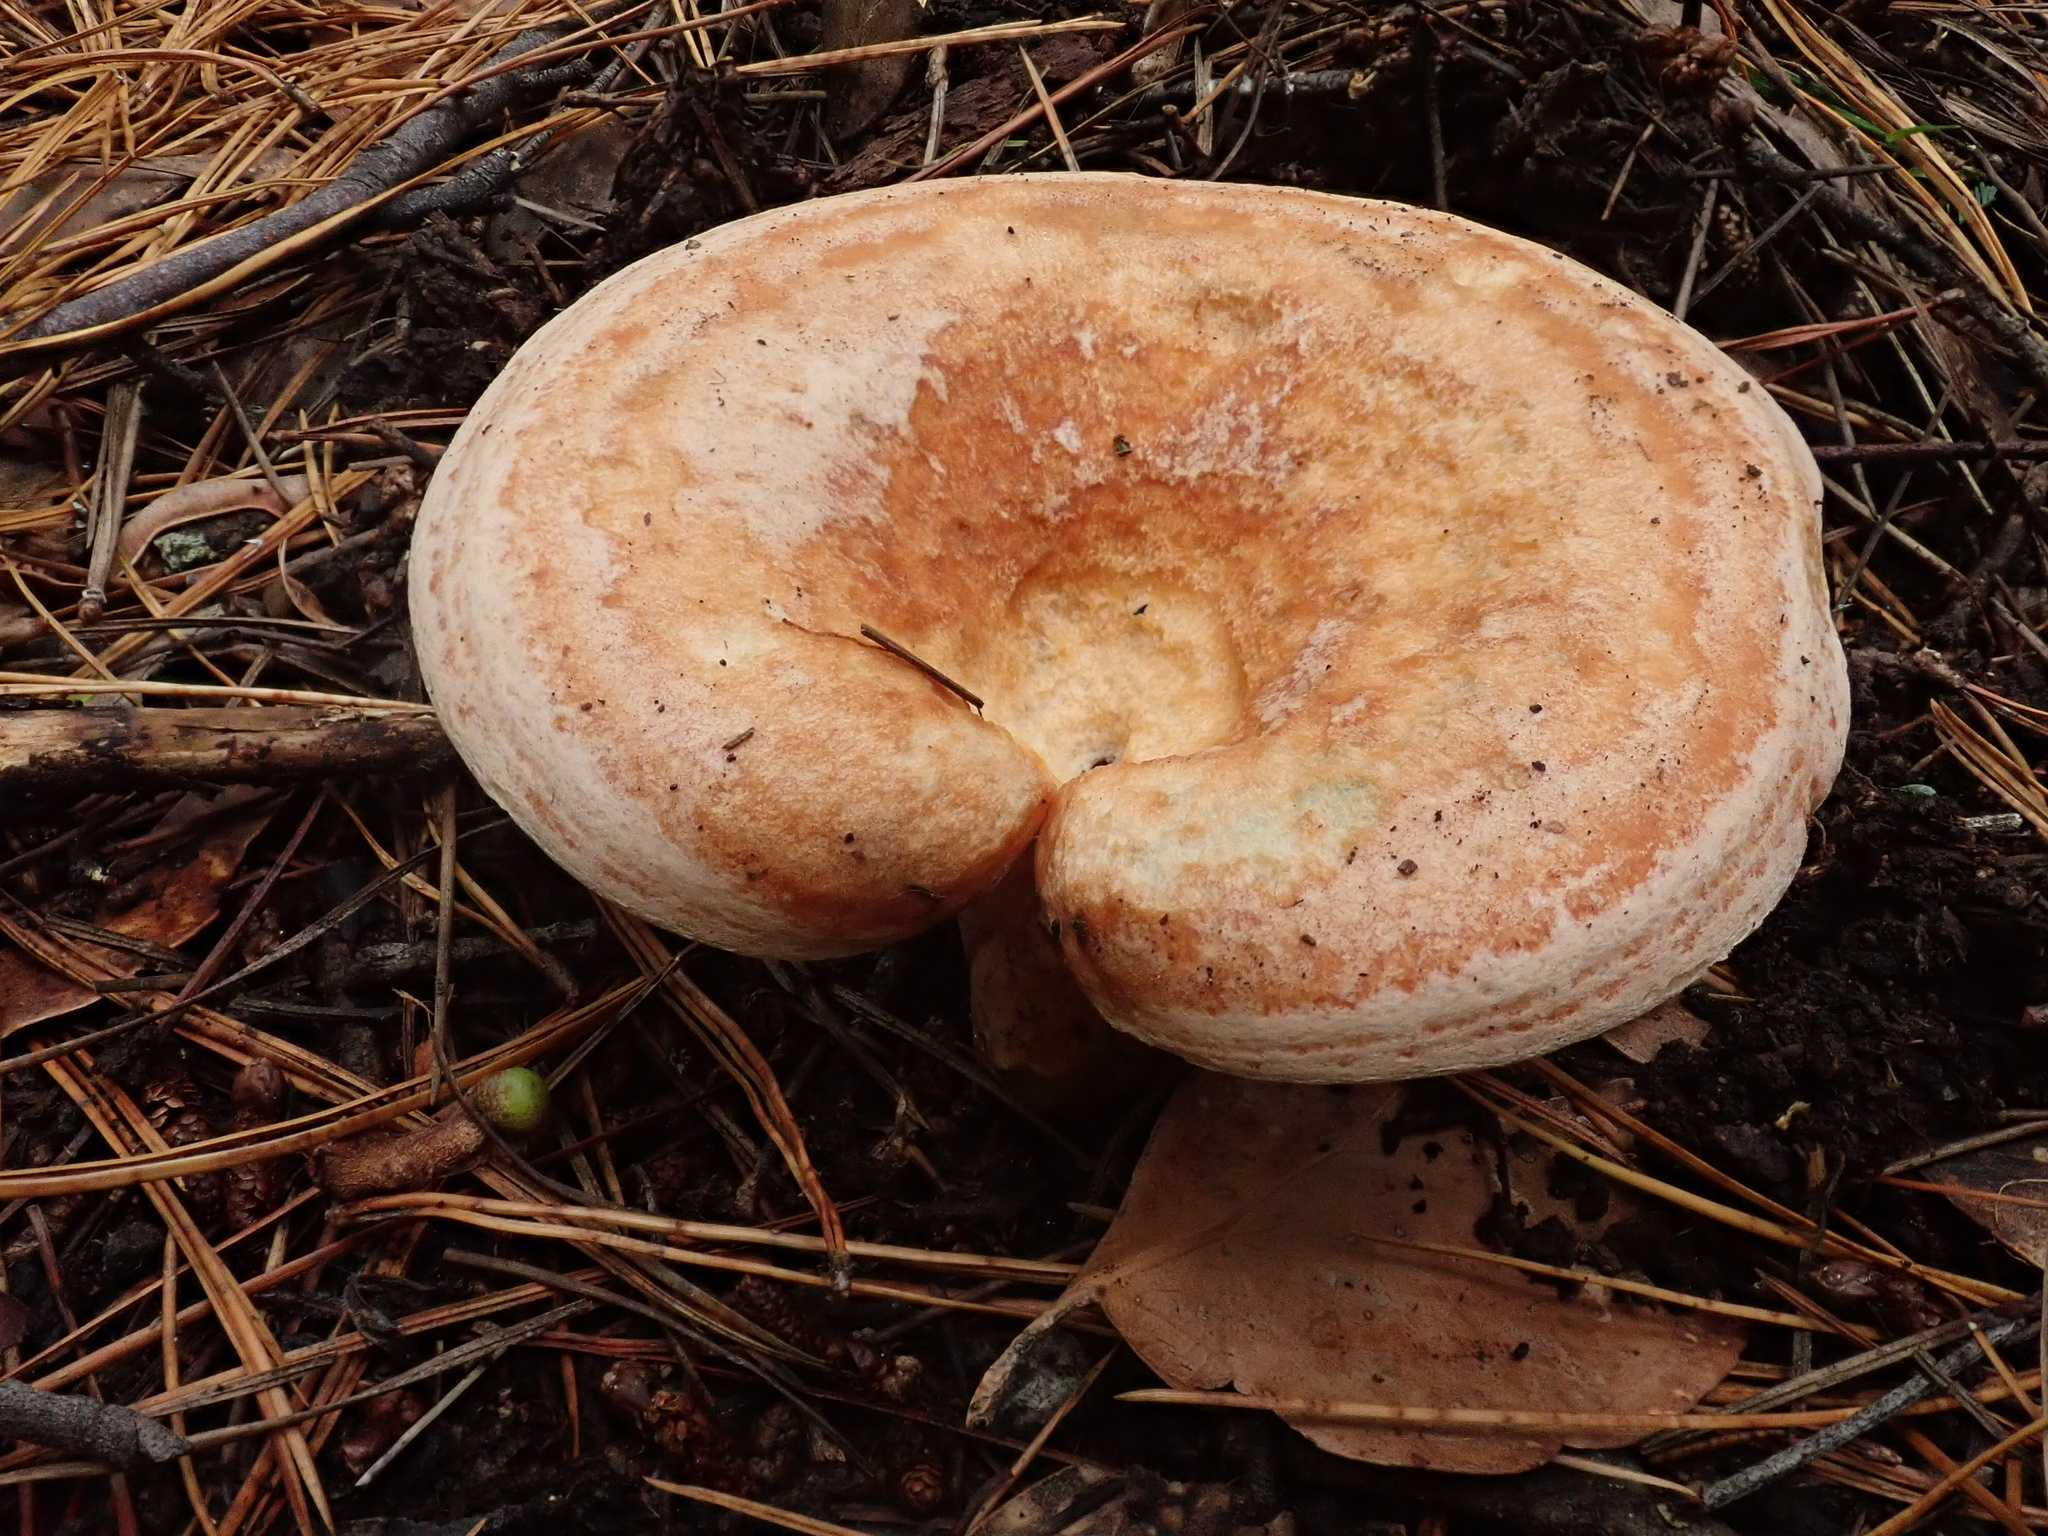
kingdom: Fungi
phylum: Basidiomycota
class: Agaricomycetes
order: Russulales
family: Russulaceae
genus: Lactarius
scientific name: Lactarius deliciosus
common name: Saffron milk-cap
